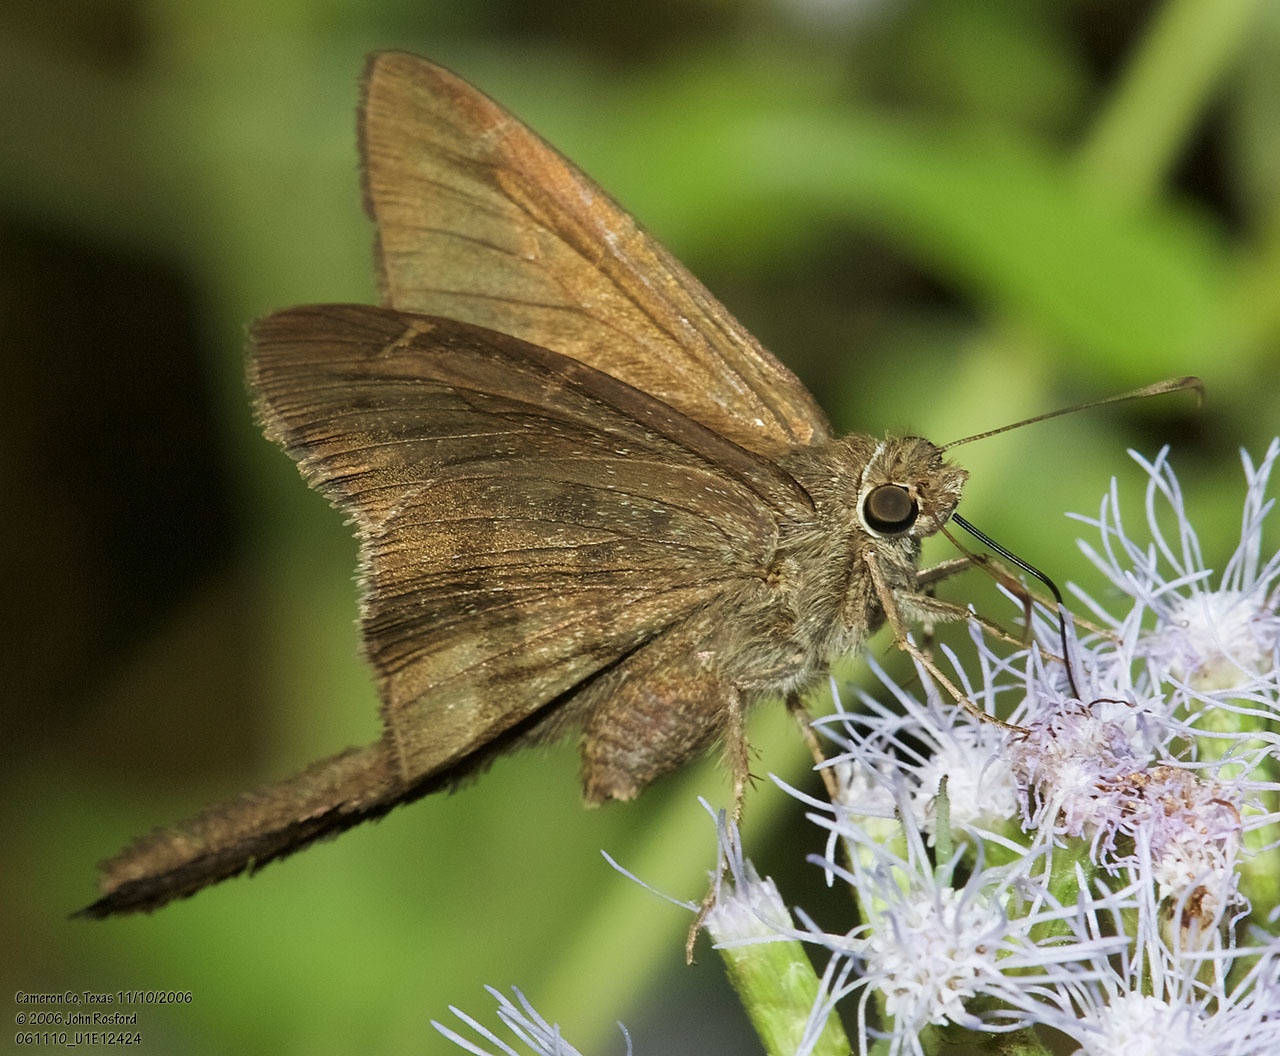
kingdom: Animalia
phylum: Arthropoda
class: Insecta
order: Lepidoptera
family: Hesperiidae
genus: Urbanus
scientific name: Urbanus procne
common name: Brown longtail
